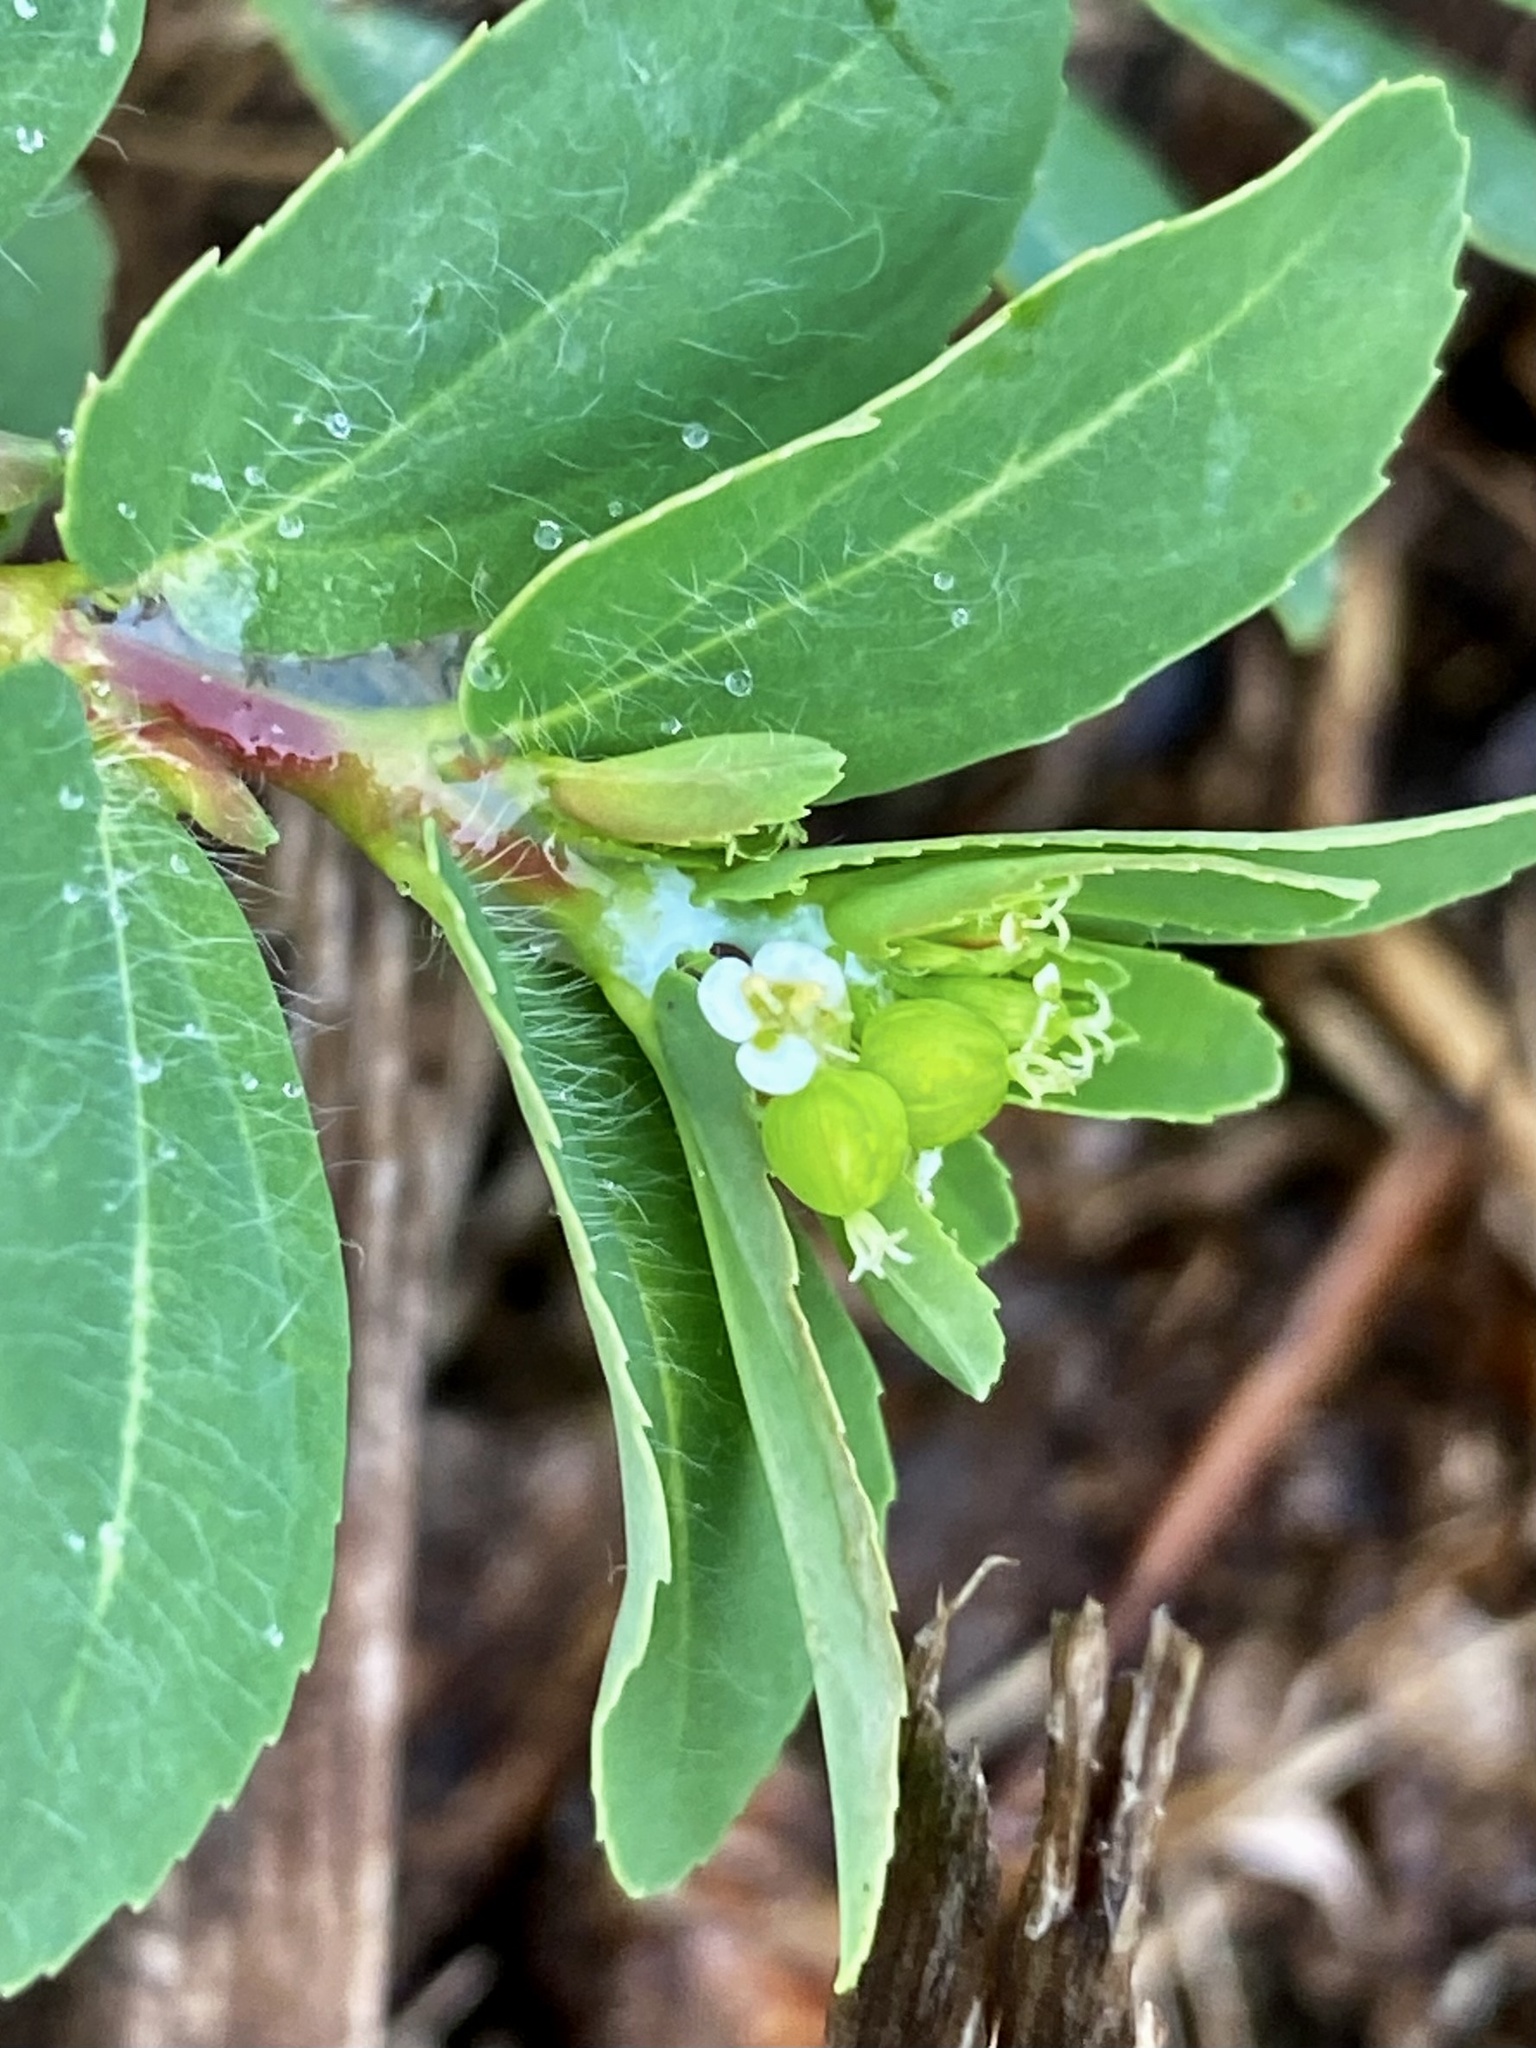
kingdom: Plantae
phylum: Tracheophyta
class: Magnoliopsida
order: Malpighiales
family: Euphorbiaceae
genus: Euphorbia
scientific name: Euphorbia nutans
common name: Eyebane
